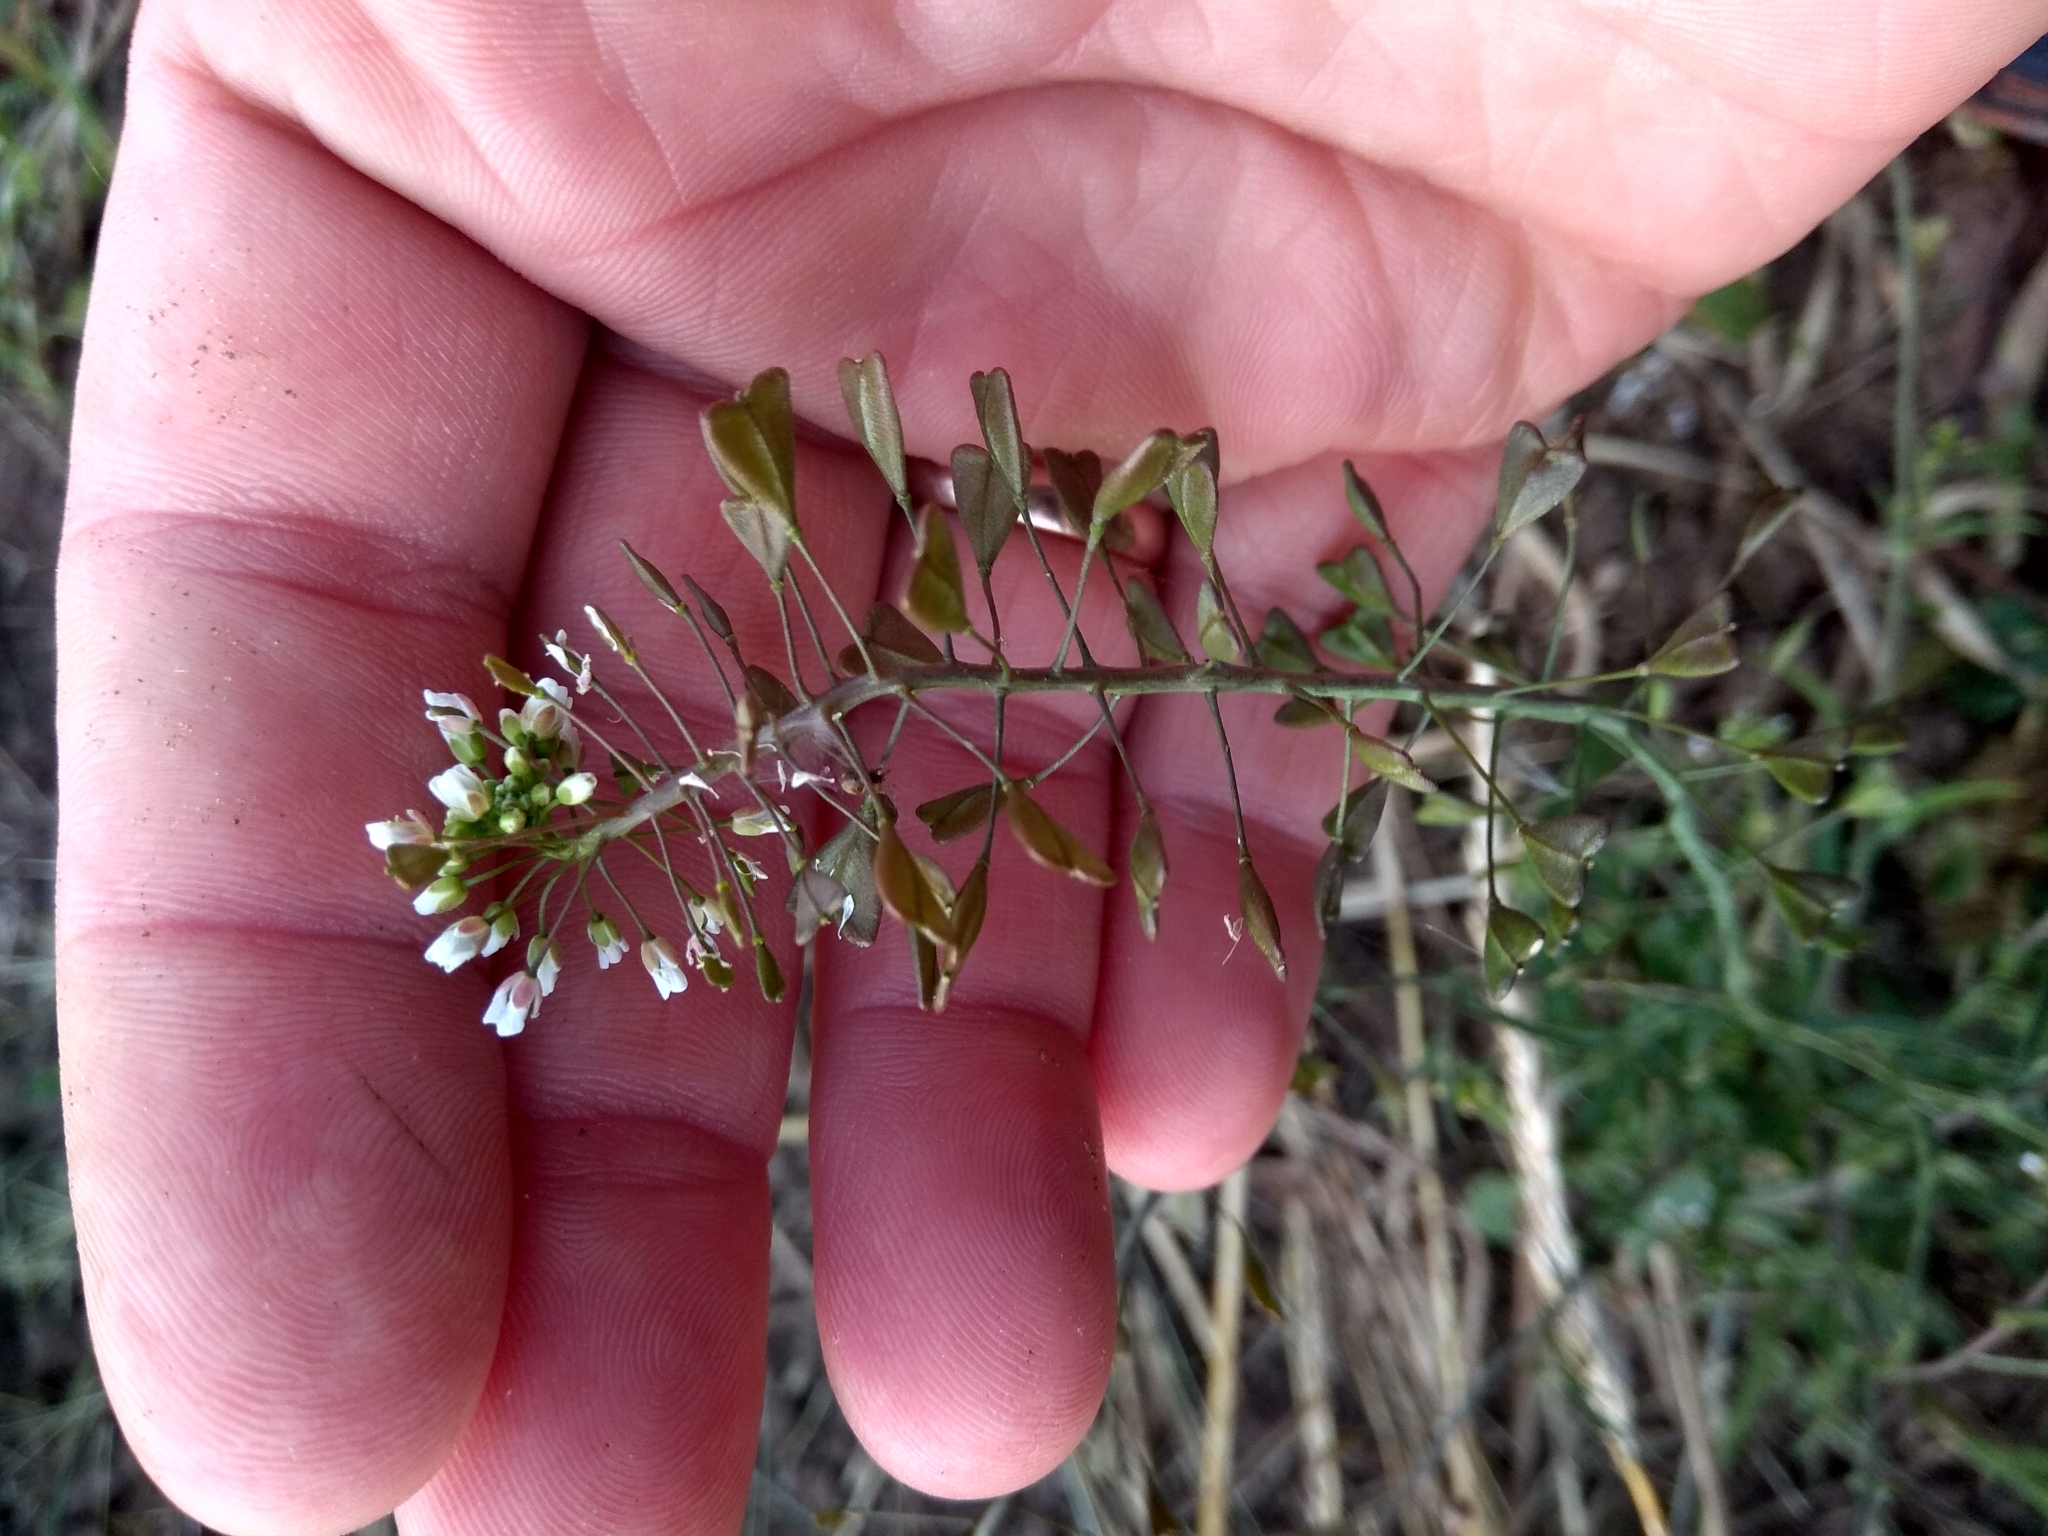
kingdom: Plantae
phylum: Tracheophyta
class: Magnoliopsida
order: Brassicales
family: Brassicaceae
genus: Capsella
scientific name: Capsella bursa-pastoris
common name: Shepherd's purse
